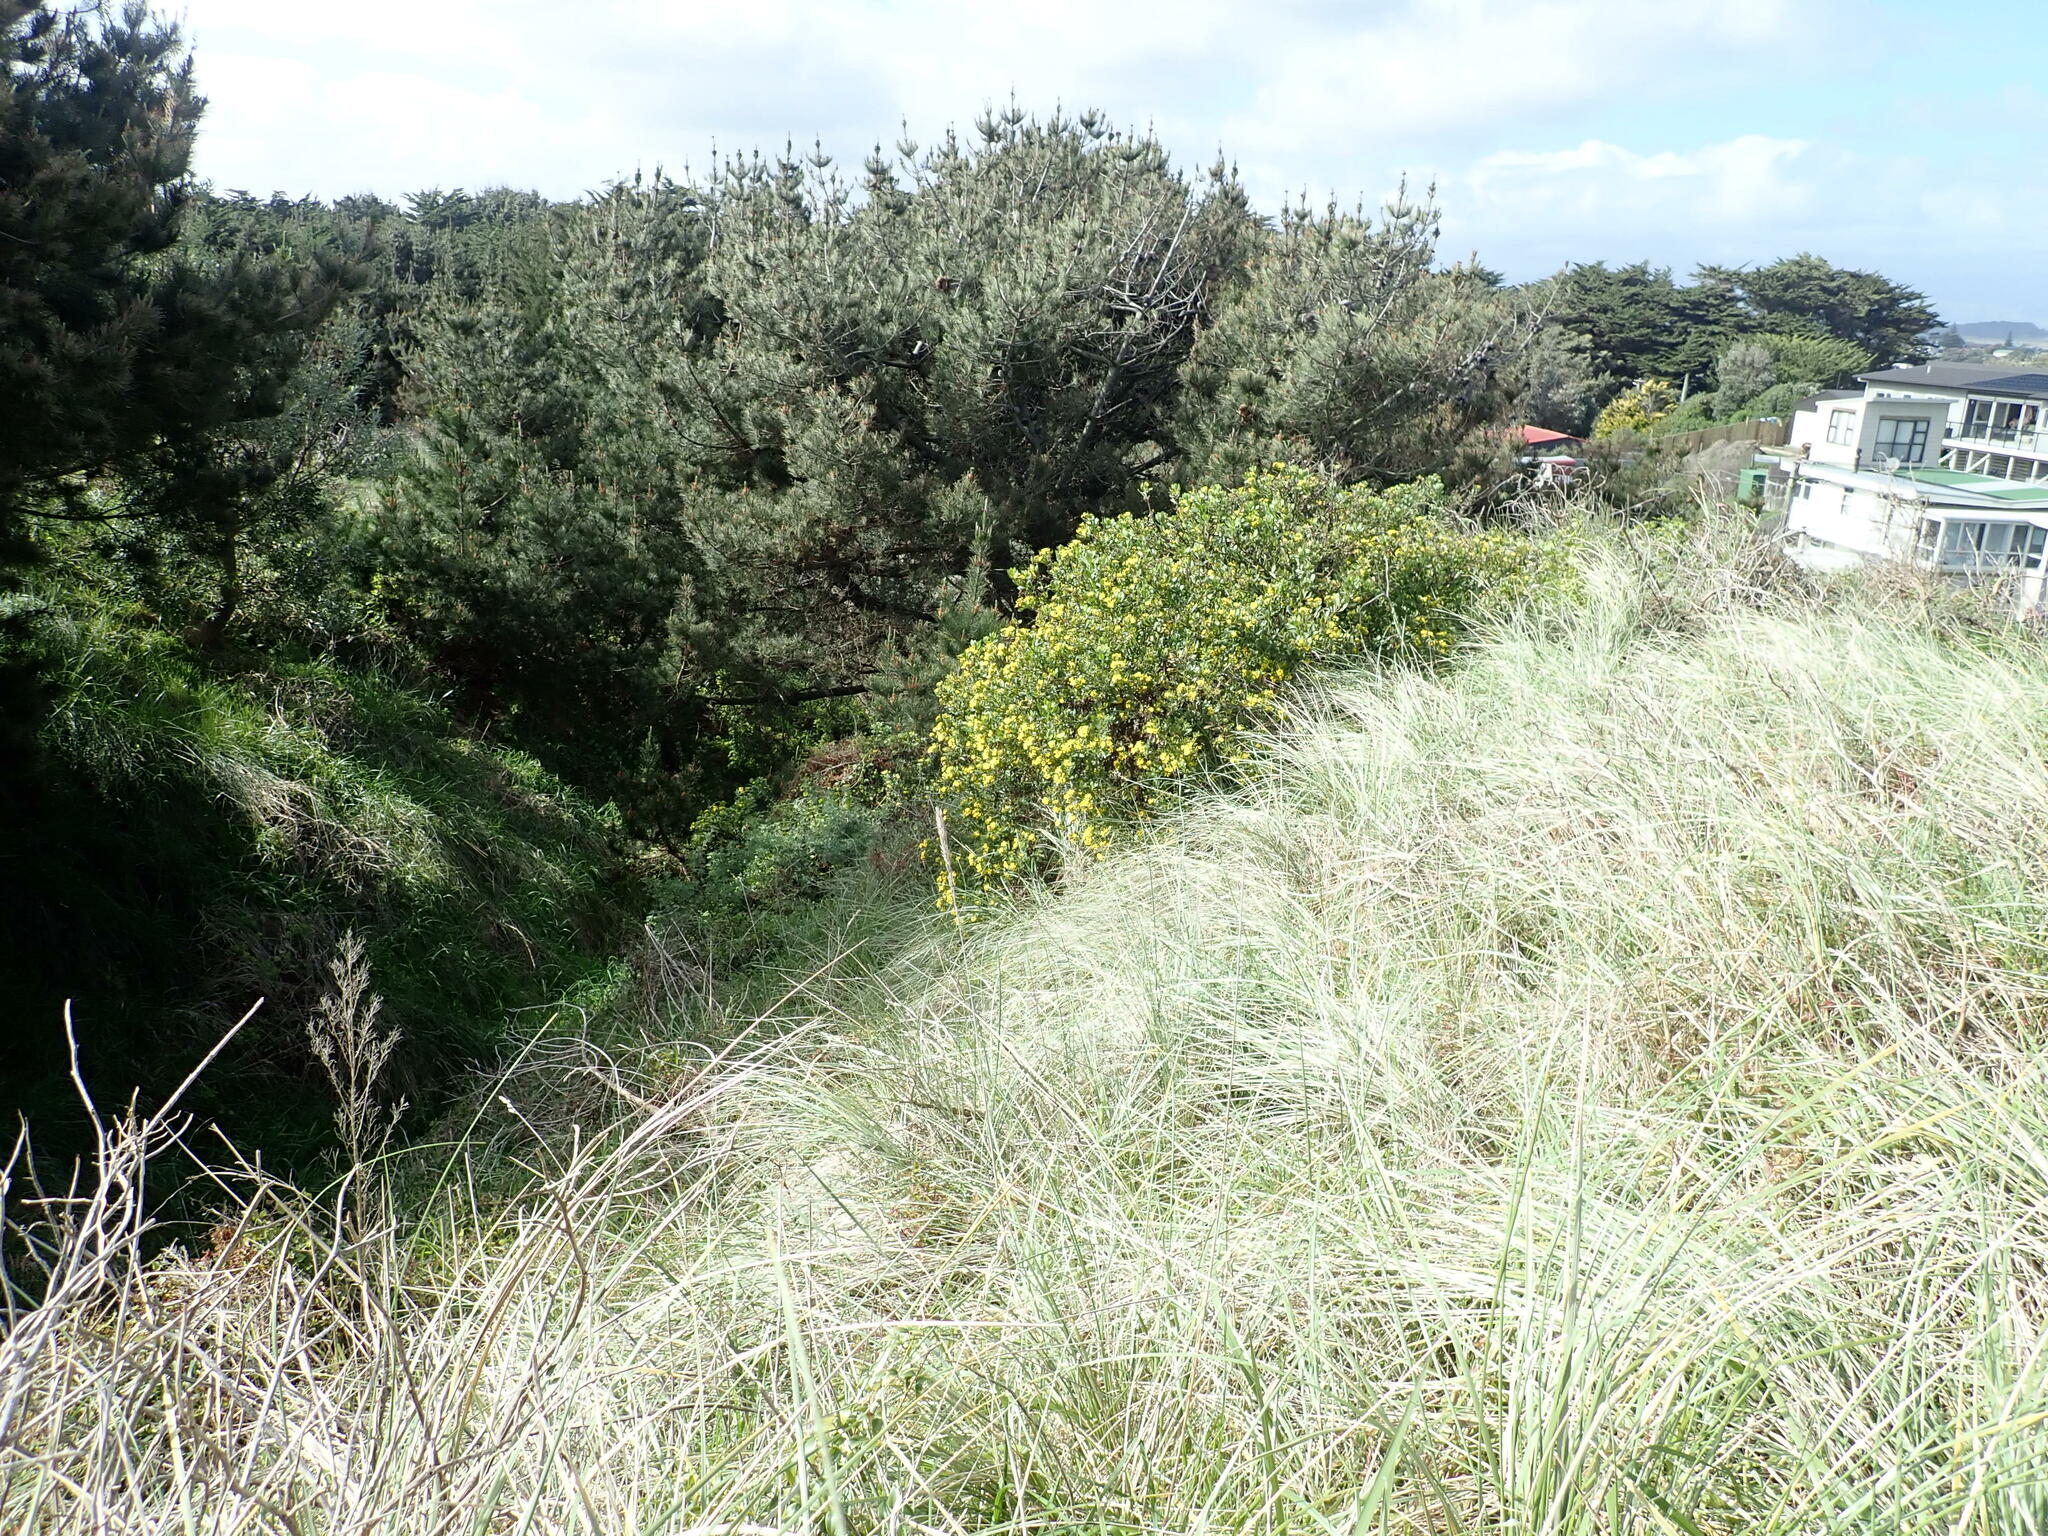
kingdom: Plantae
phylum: Tracheophyta
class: Magnoliopsida
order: Asterales
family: Asteraceae
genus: Osteospermum
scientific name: Osteospermum moniliferum
